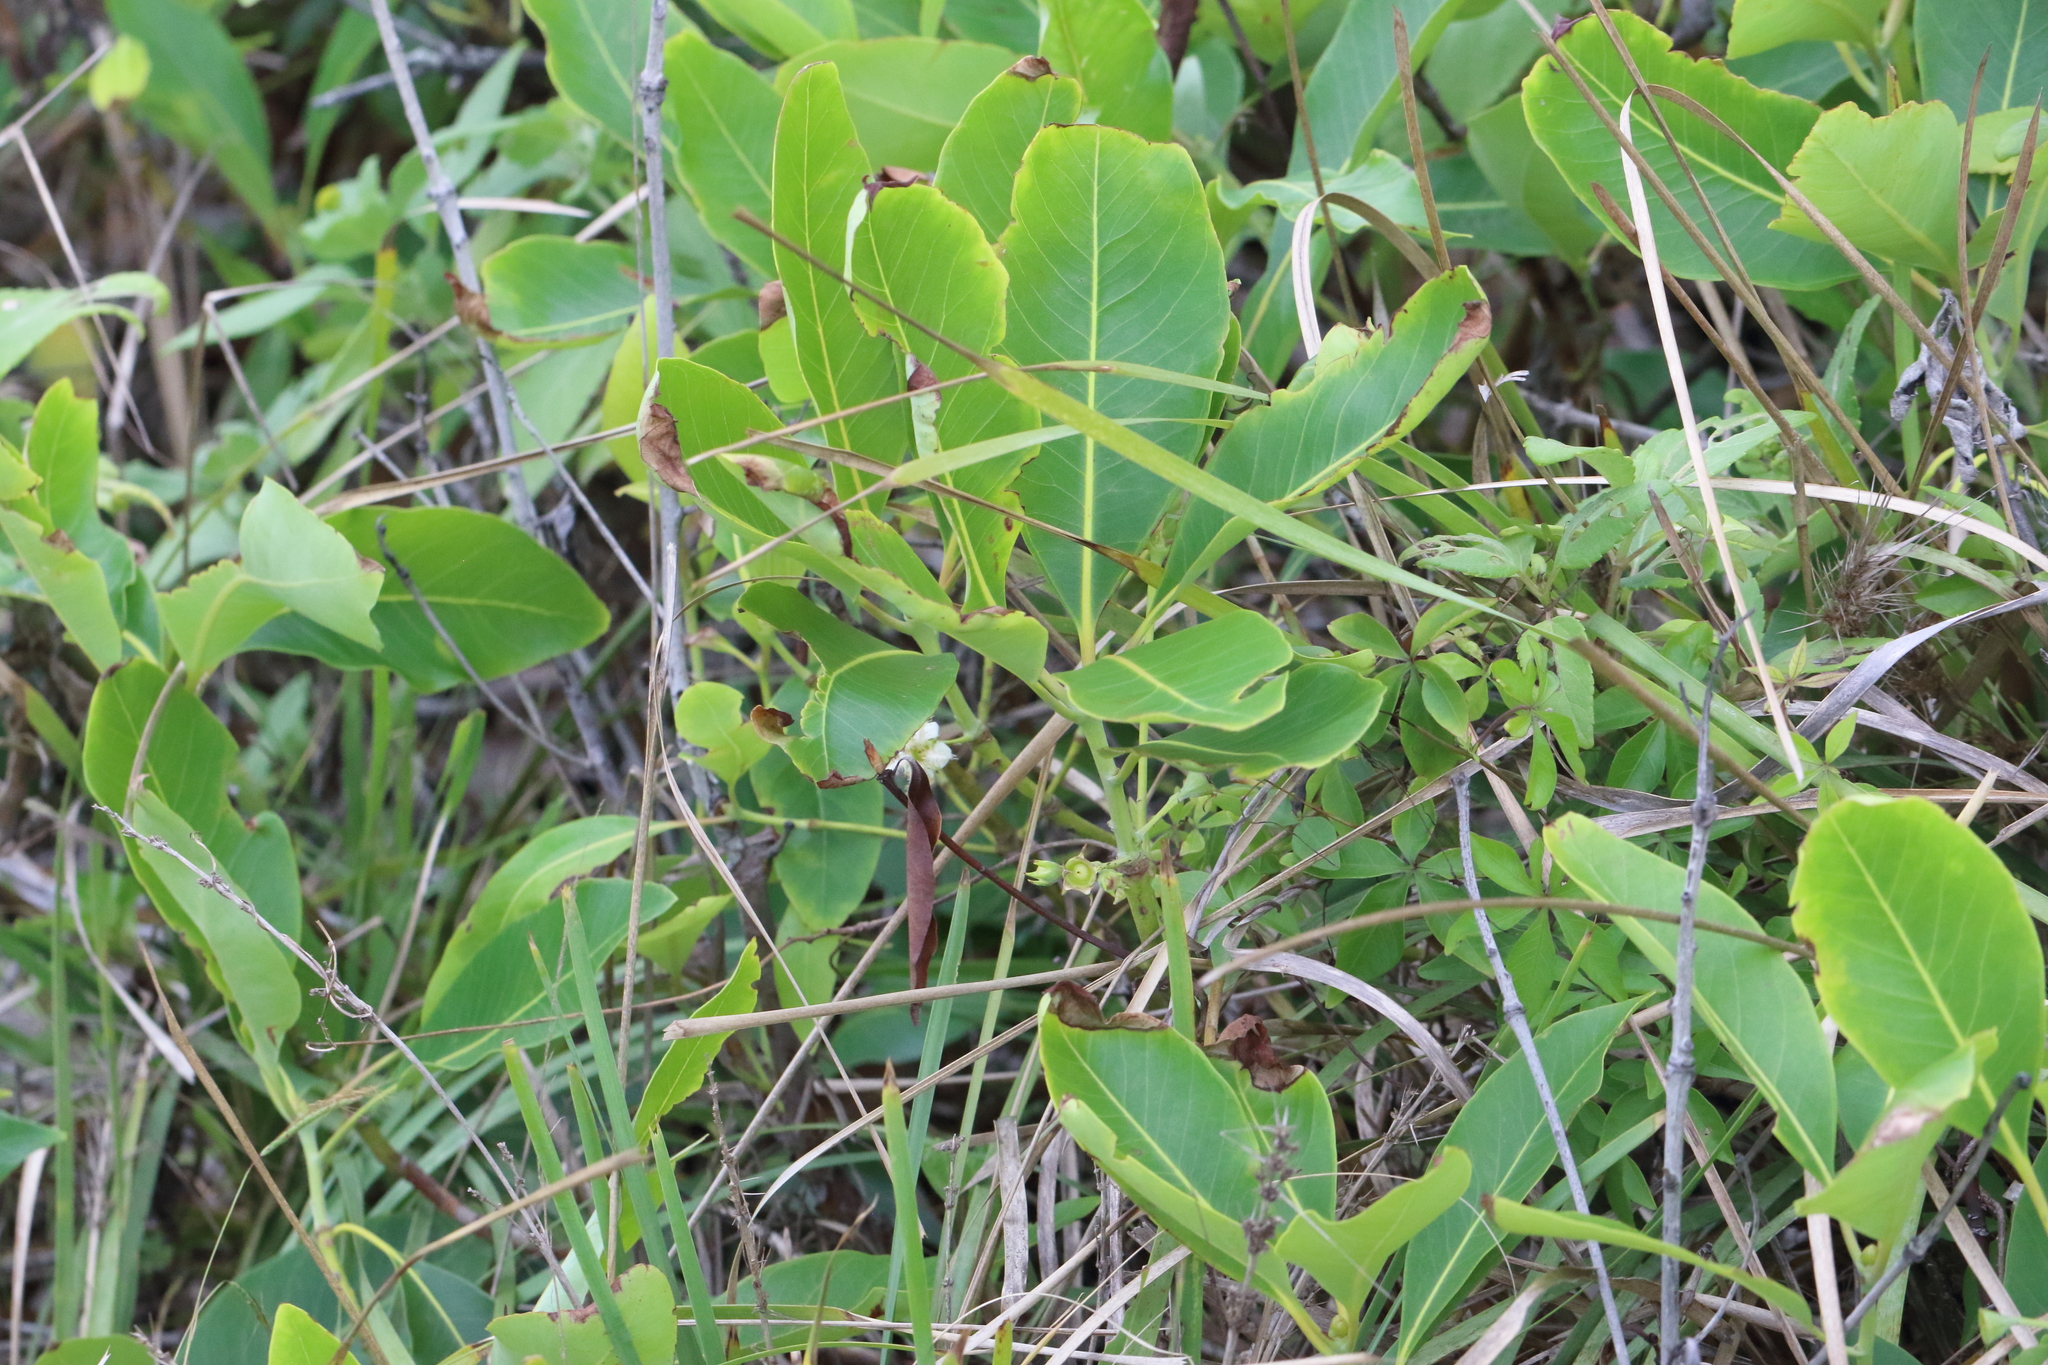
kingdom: Plantae
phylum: Tracheophyta
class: Magnoliopsida
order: Myrtales
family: Myrtaceae
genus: Lophostemon
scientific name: Lophostemon confertus
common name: Brisbane box
